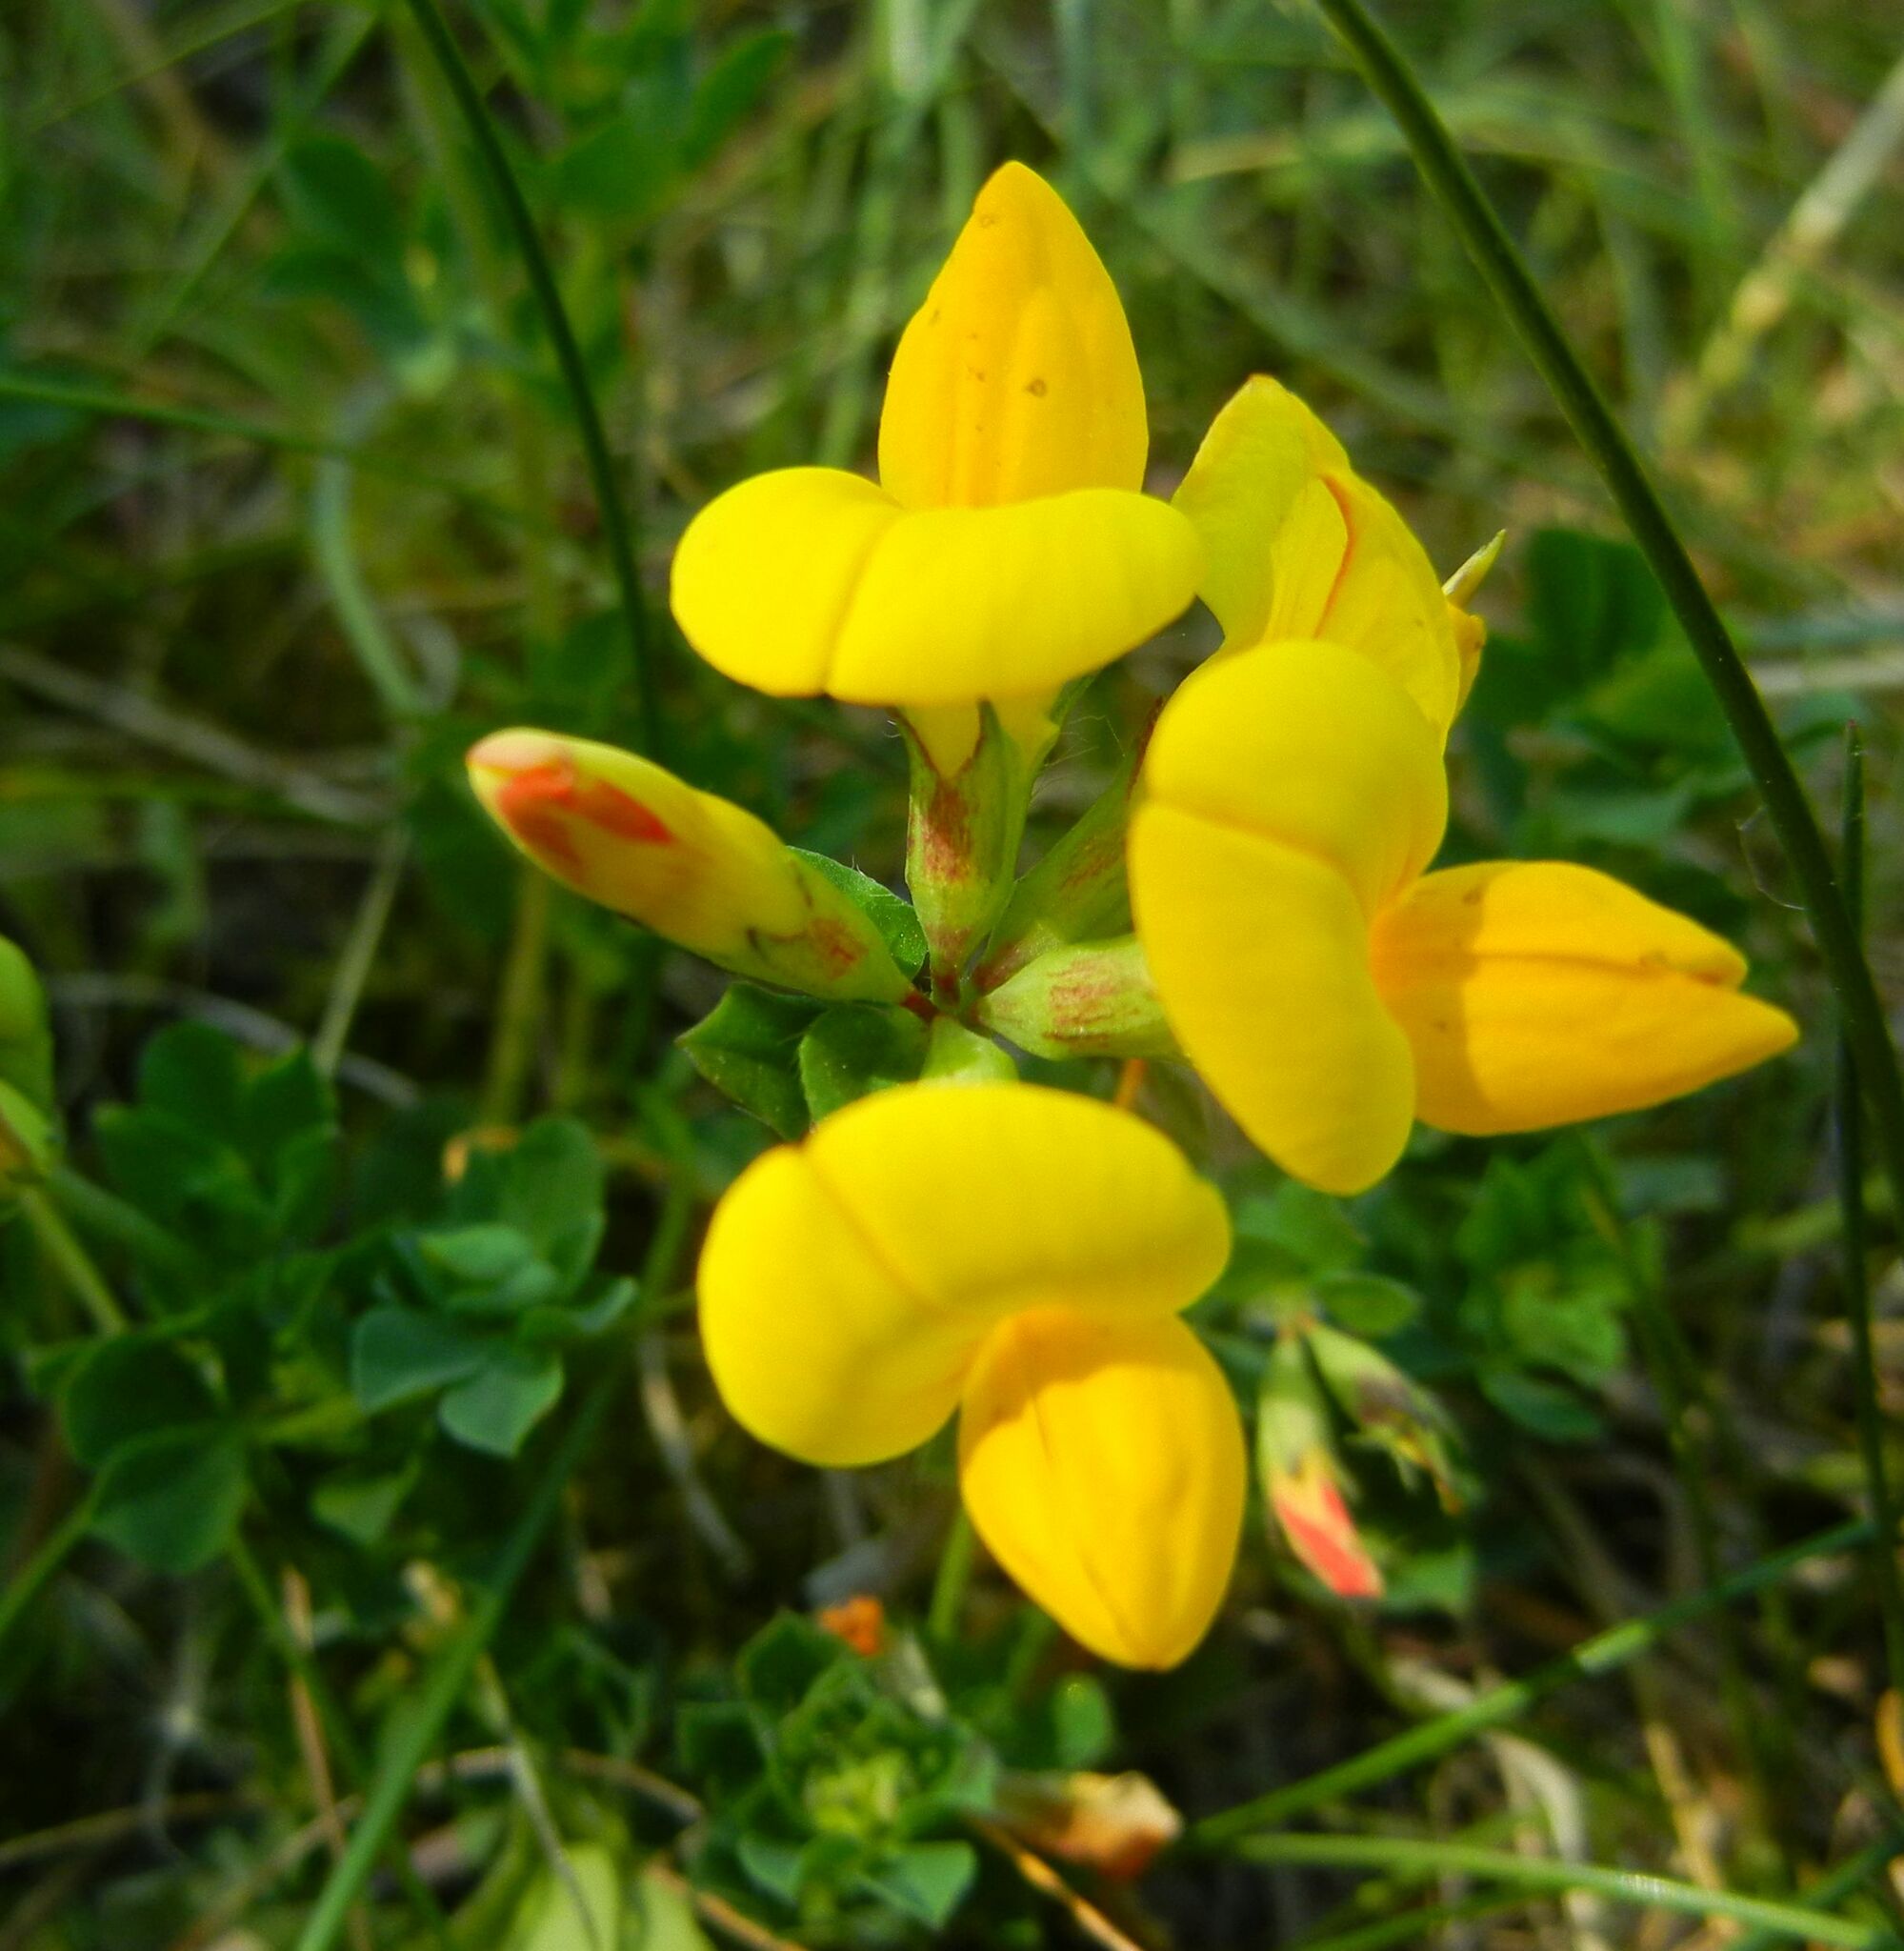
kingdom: Plantae
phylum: Tracheophyta
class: Magnoliopsida
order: Fabales
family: Fabaceae
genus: Lotus
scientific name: Lotus corniculatus
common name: Common bird's-foot-trefoil
